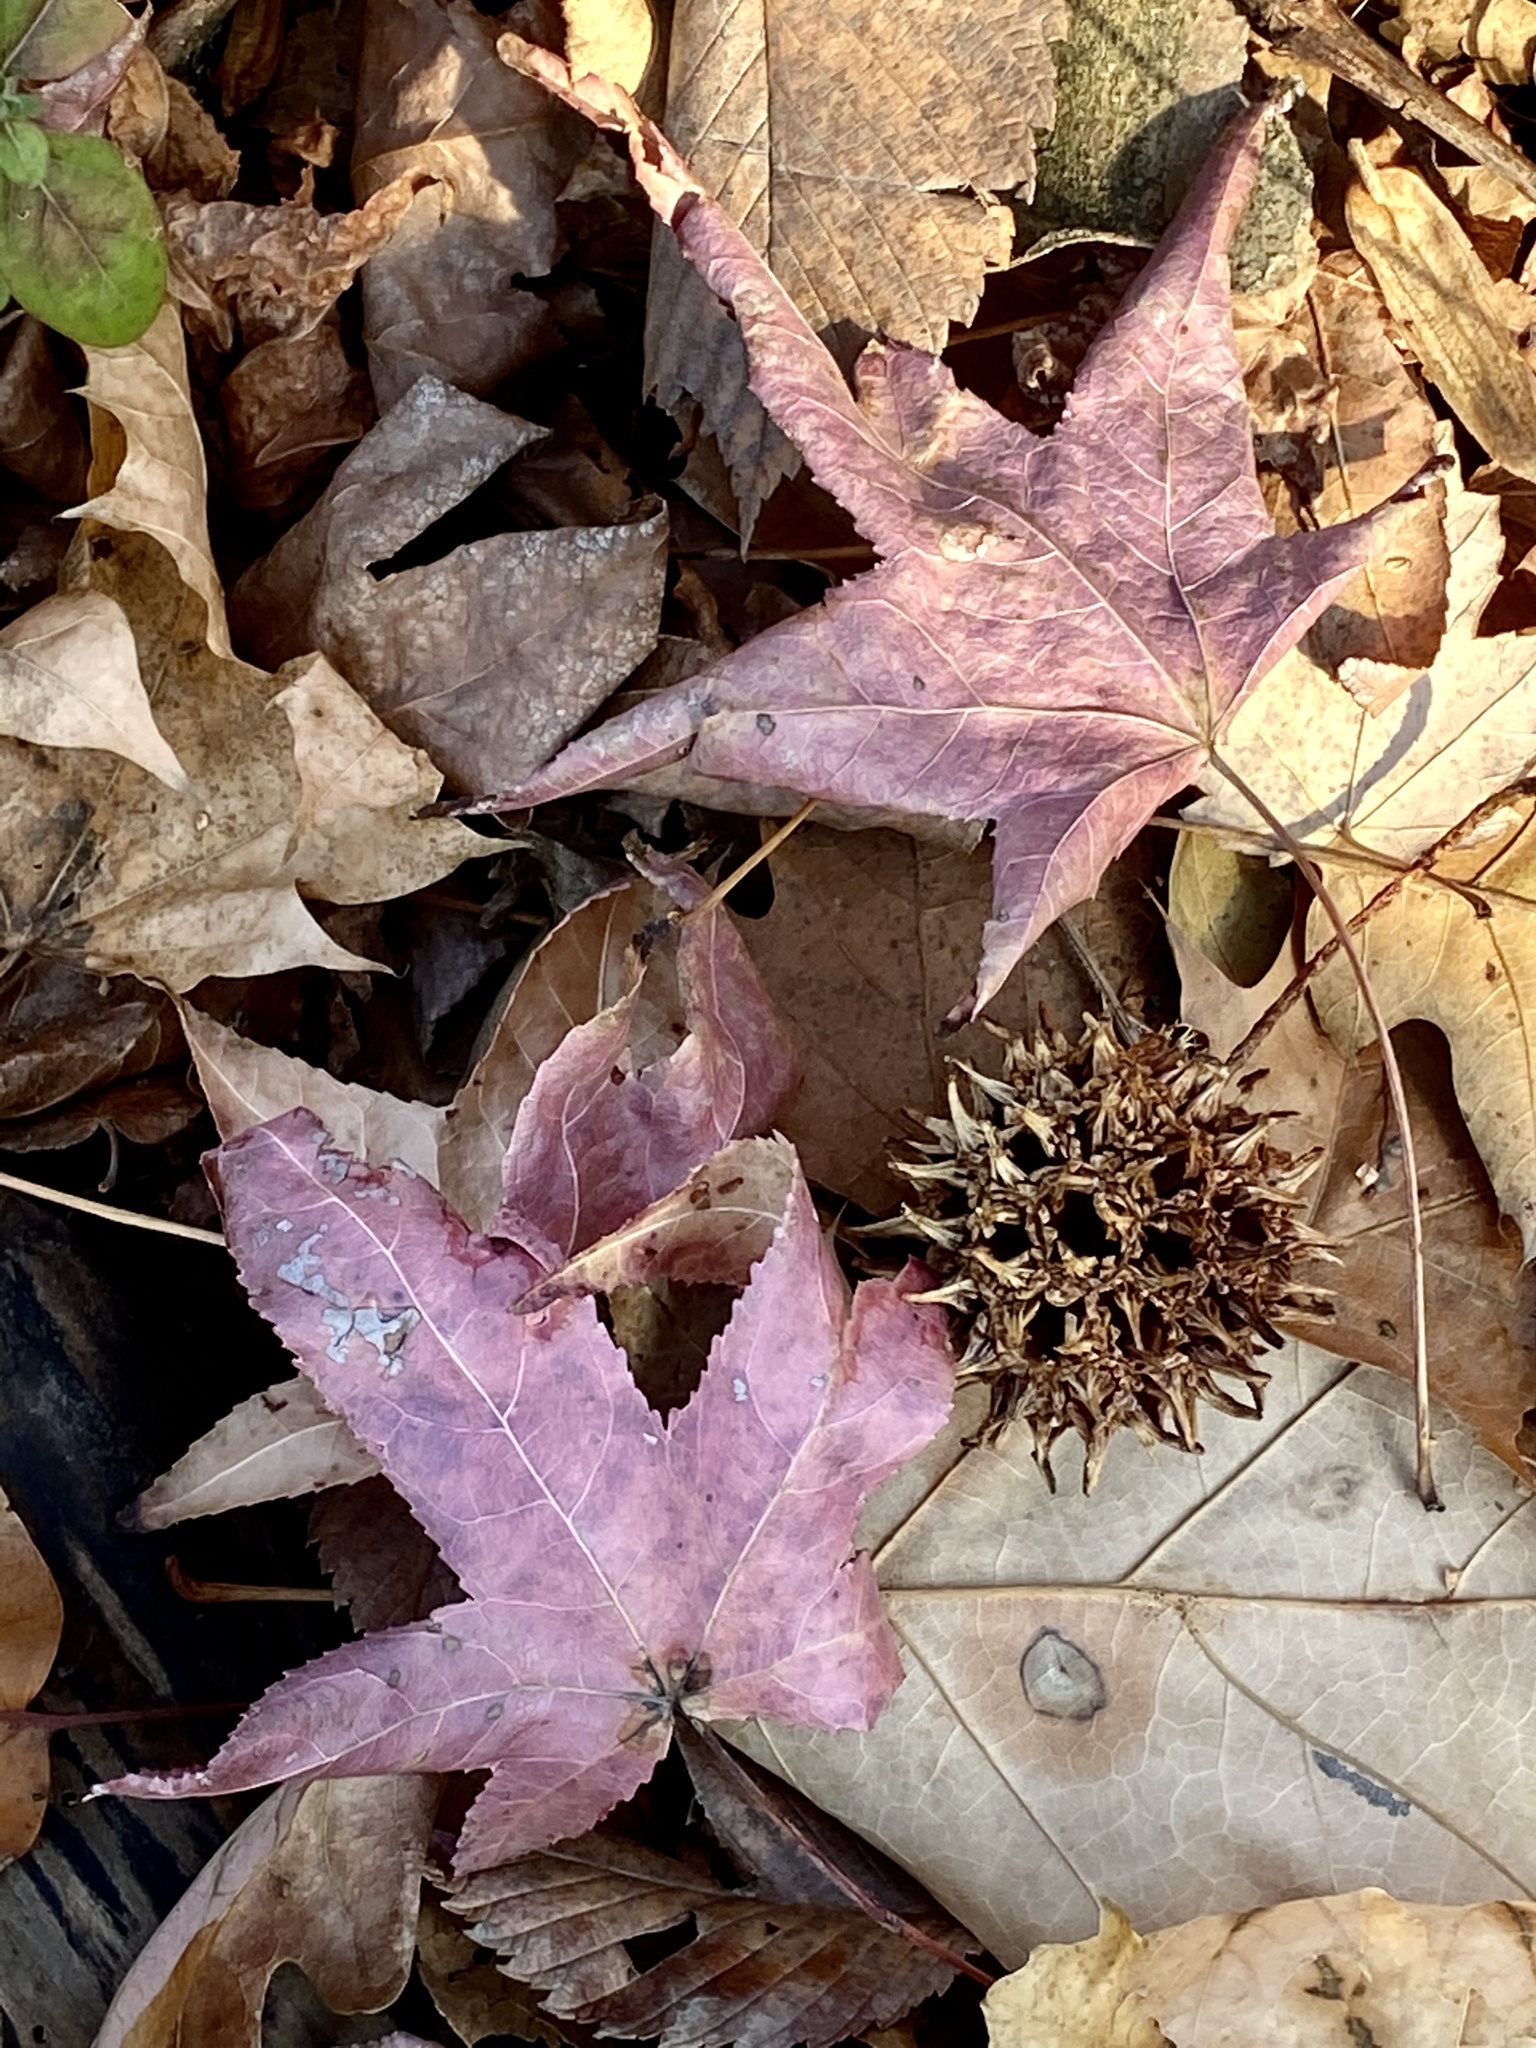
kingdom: Plantae
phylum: Tracheophyta
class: Magnoliopsida
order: Saxifragales
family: Altingiaceae
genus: Liquidambar
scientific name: Liquidambar styraciflua
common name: Sweet gum
